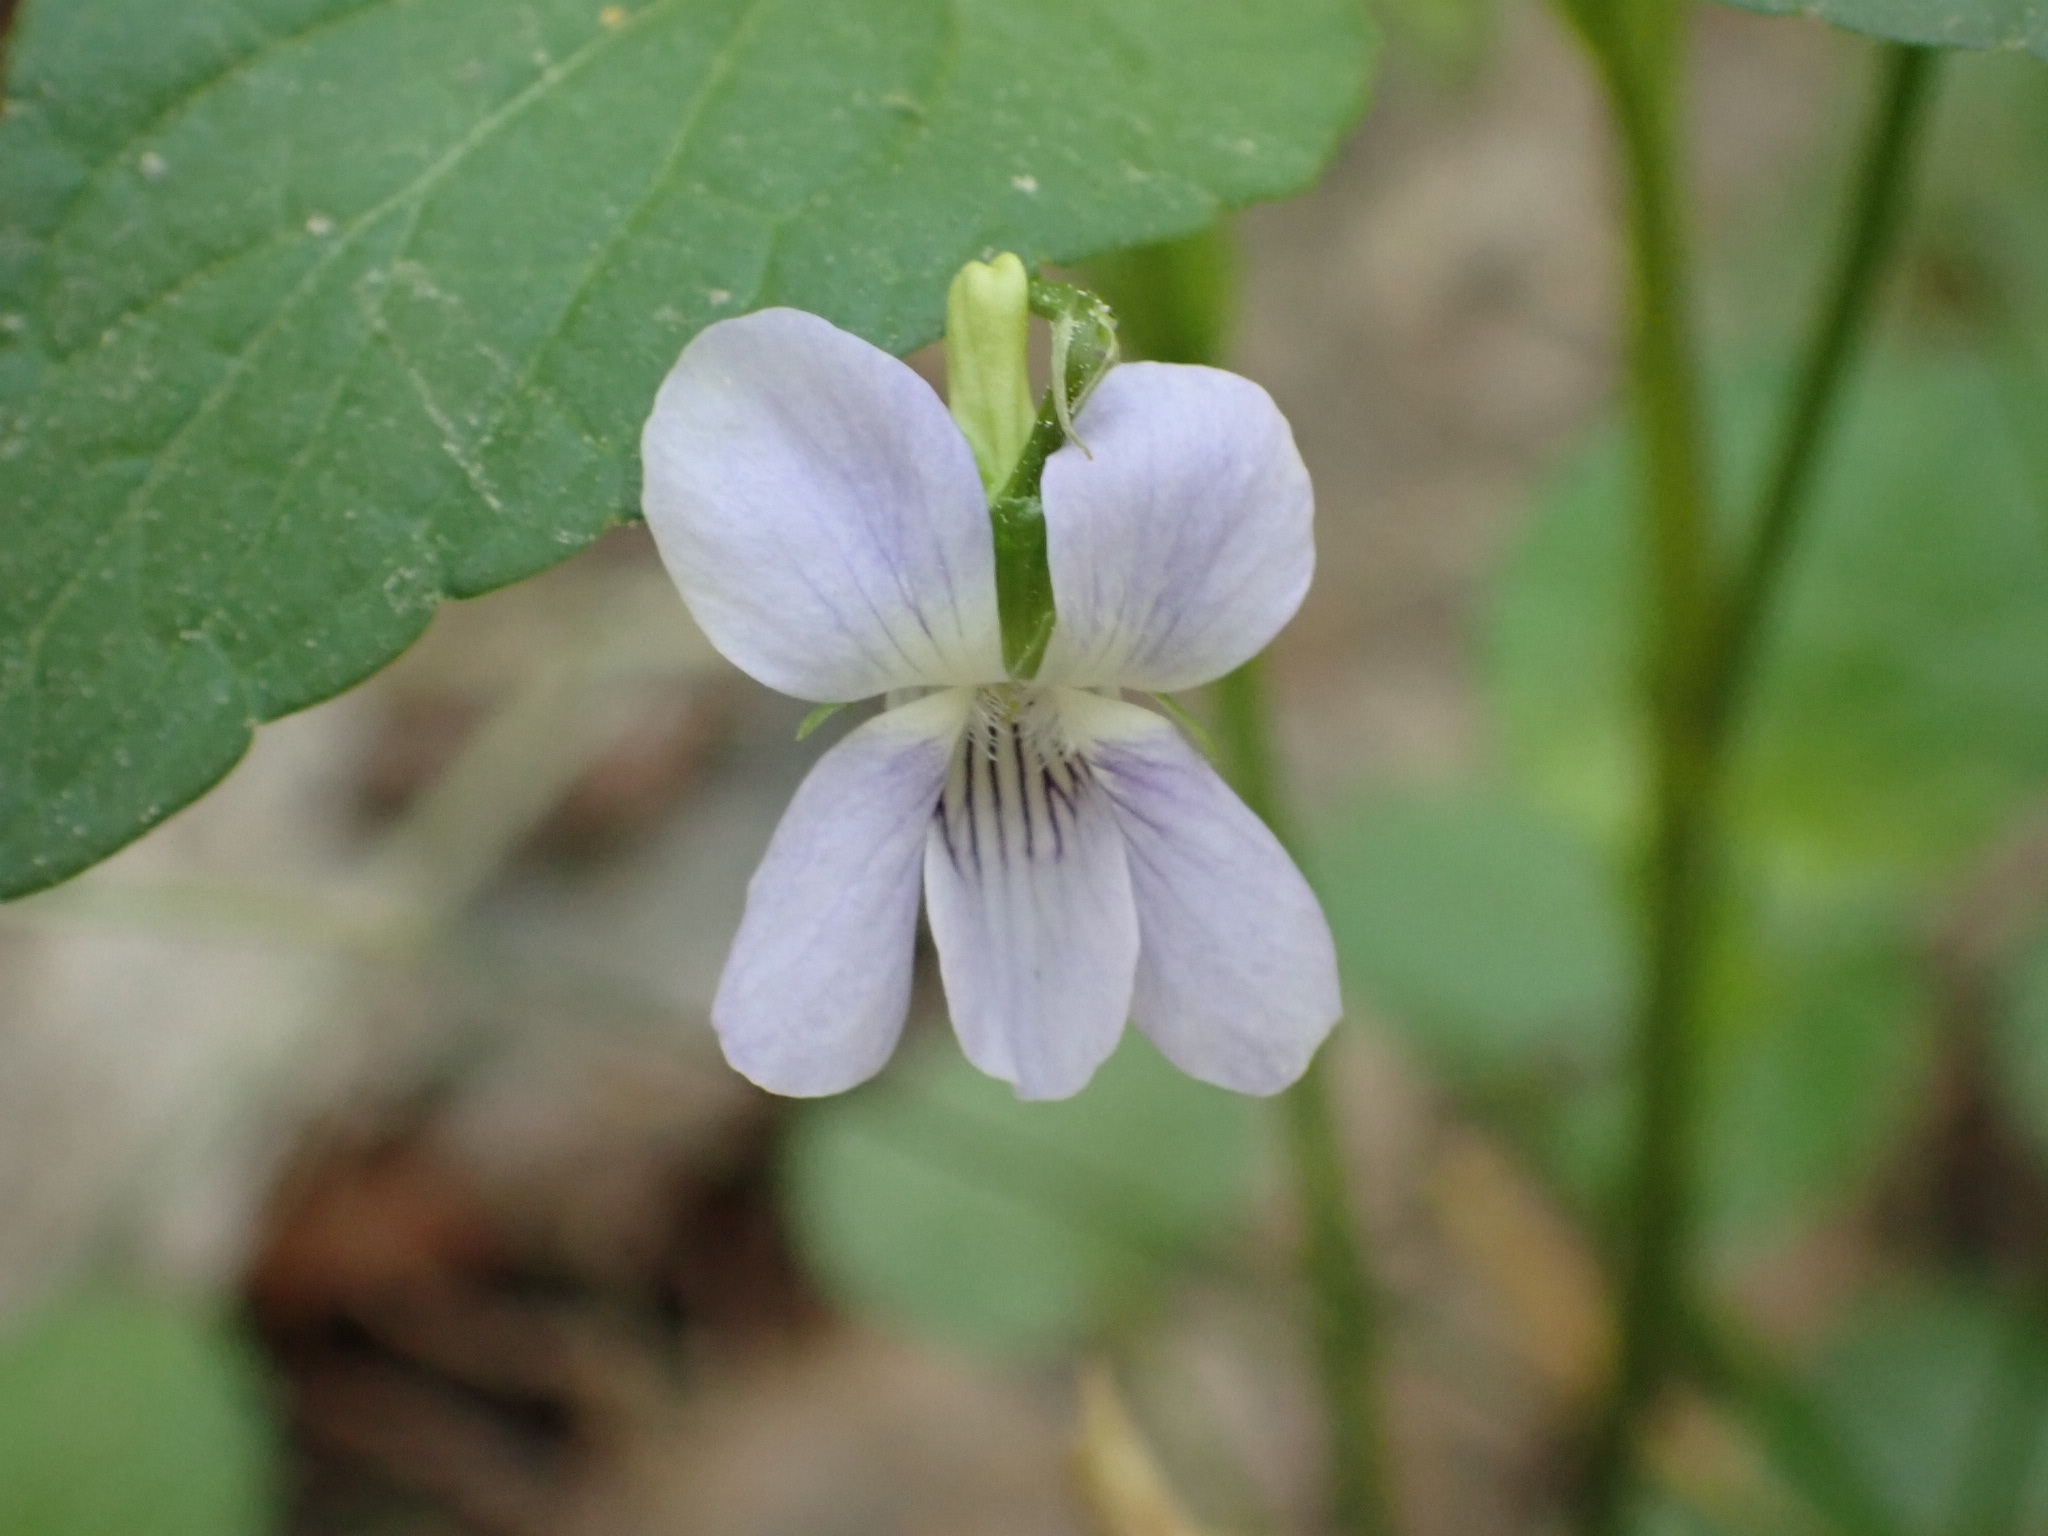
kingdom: Plantae
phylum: Tracheophyta
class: Magnoliopsida
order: Malpighiales
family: Violaceae
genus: Viola
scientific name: Viola
